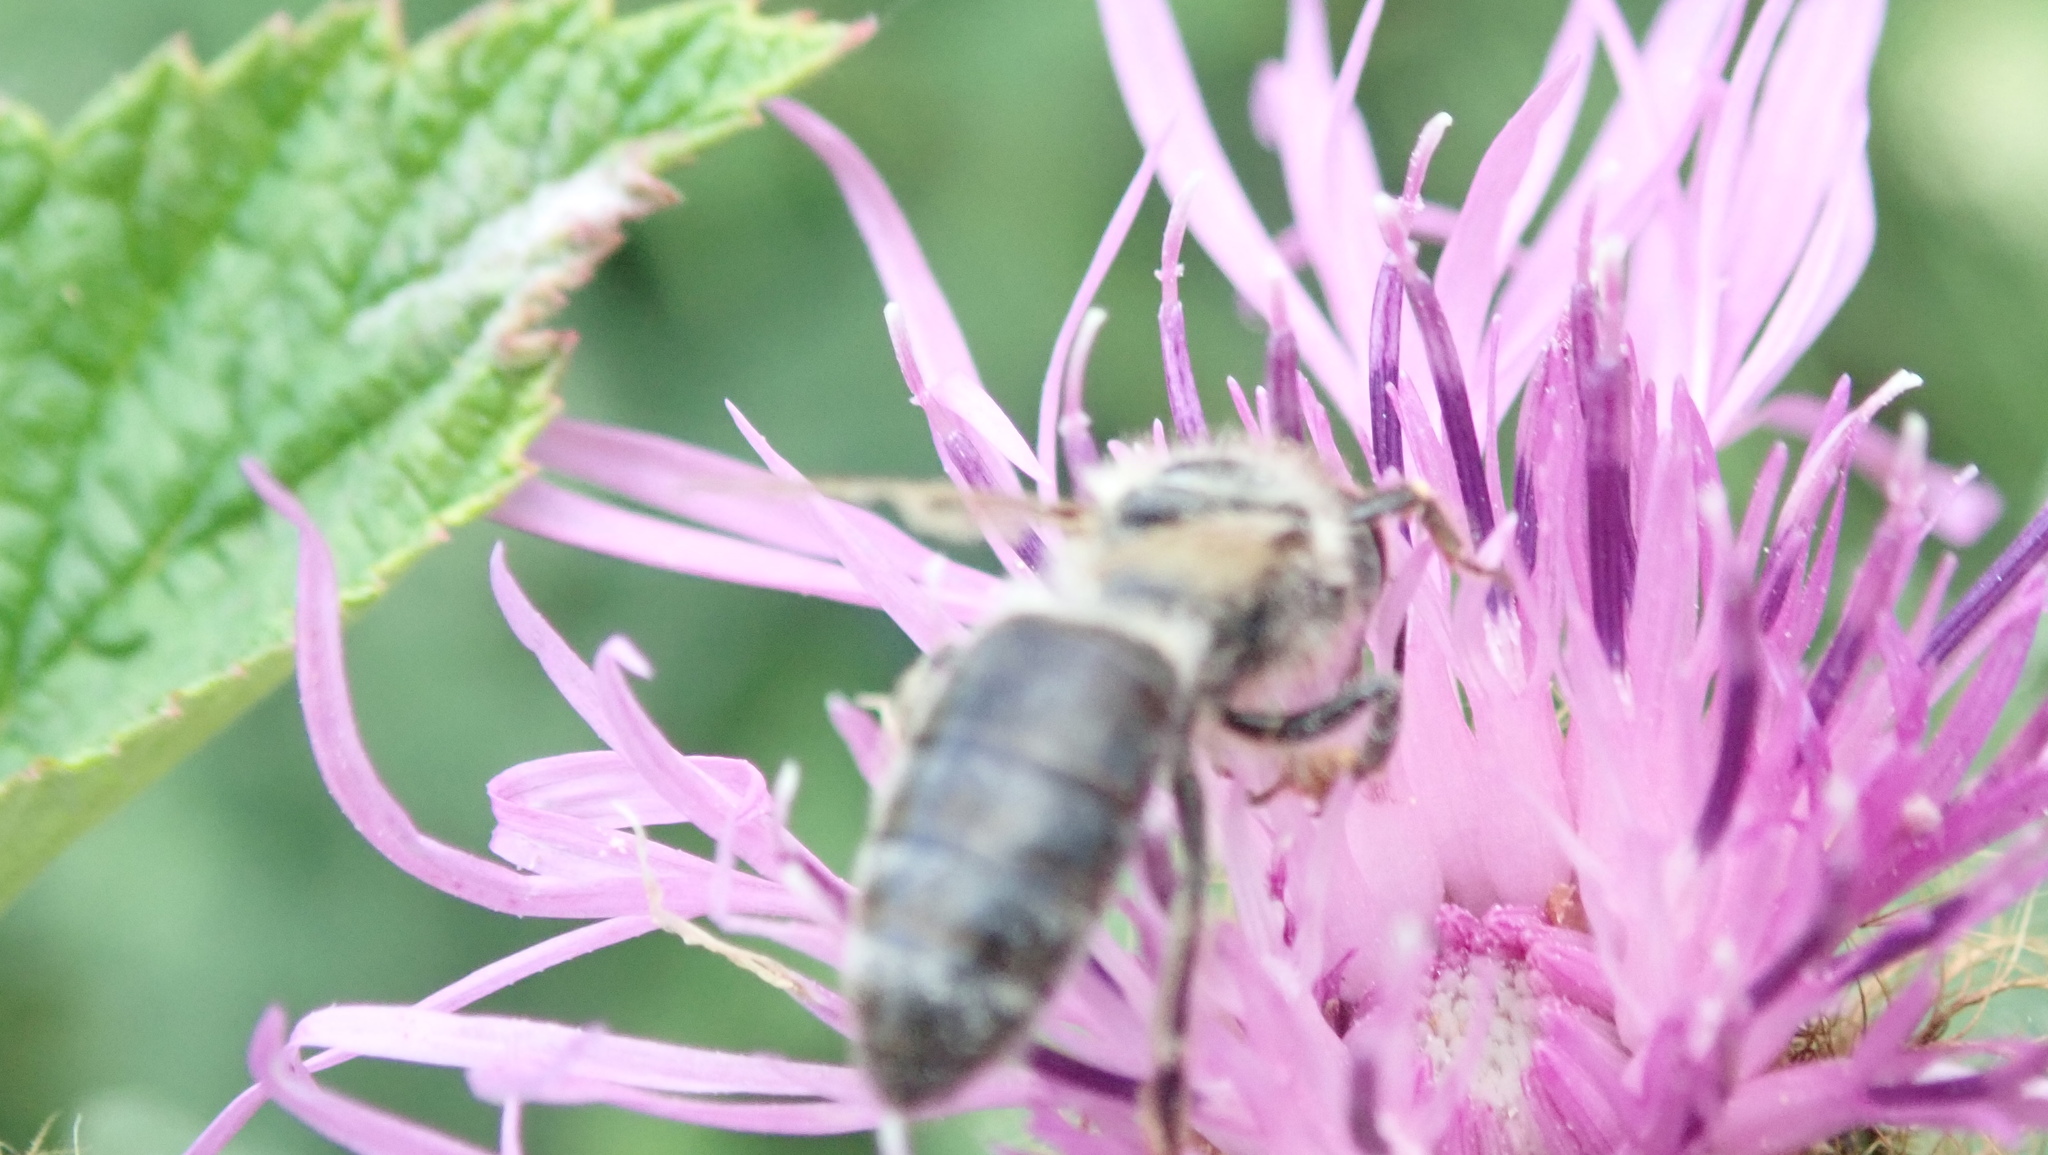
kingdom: Animalia
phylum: Arthropoda
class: Insecta
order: Hymenoptera
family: Apidae
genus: Apis
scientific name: Apis mellifera
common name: Honey bee
